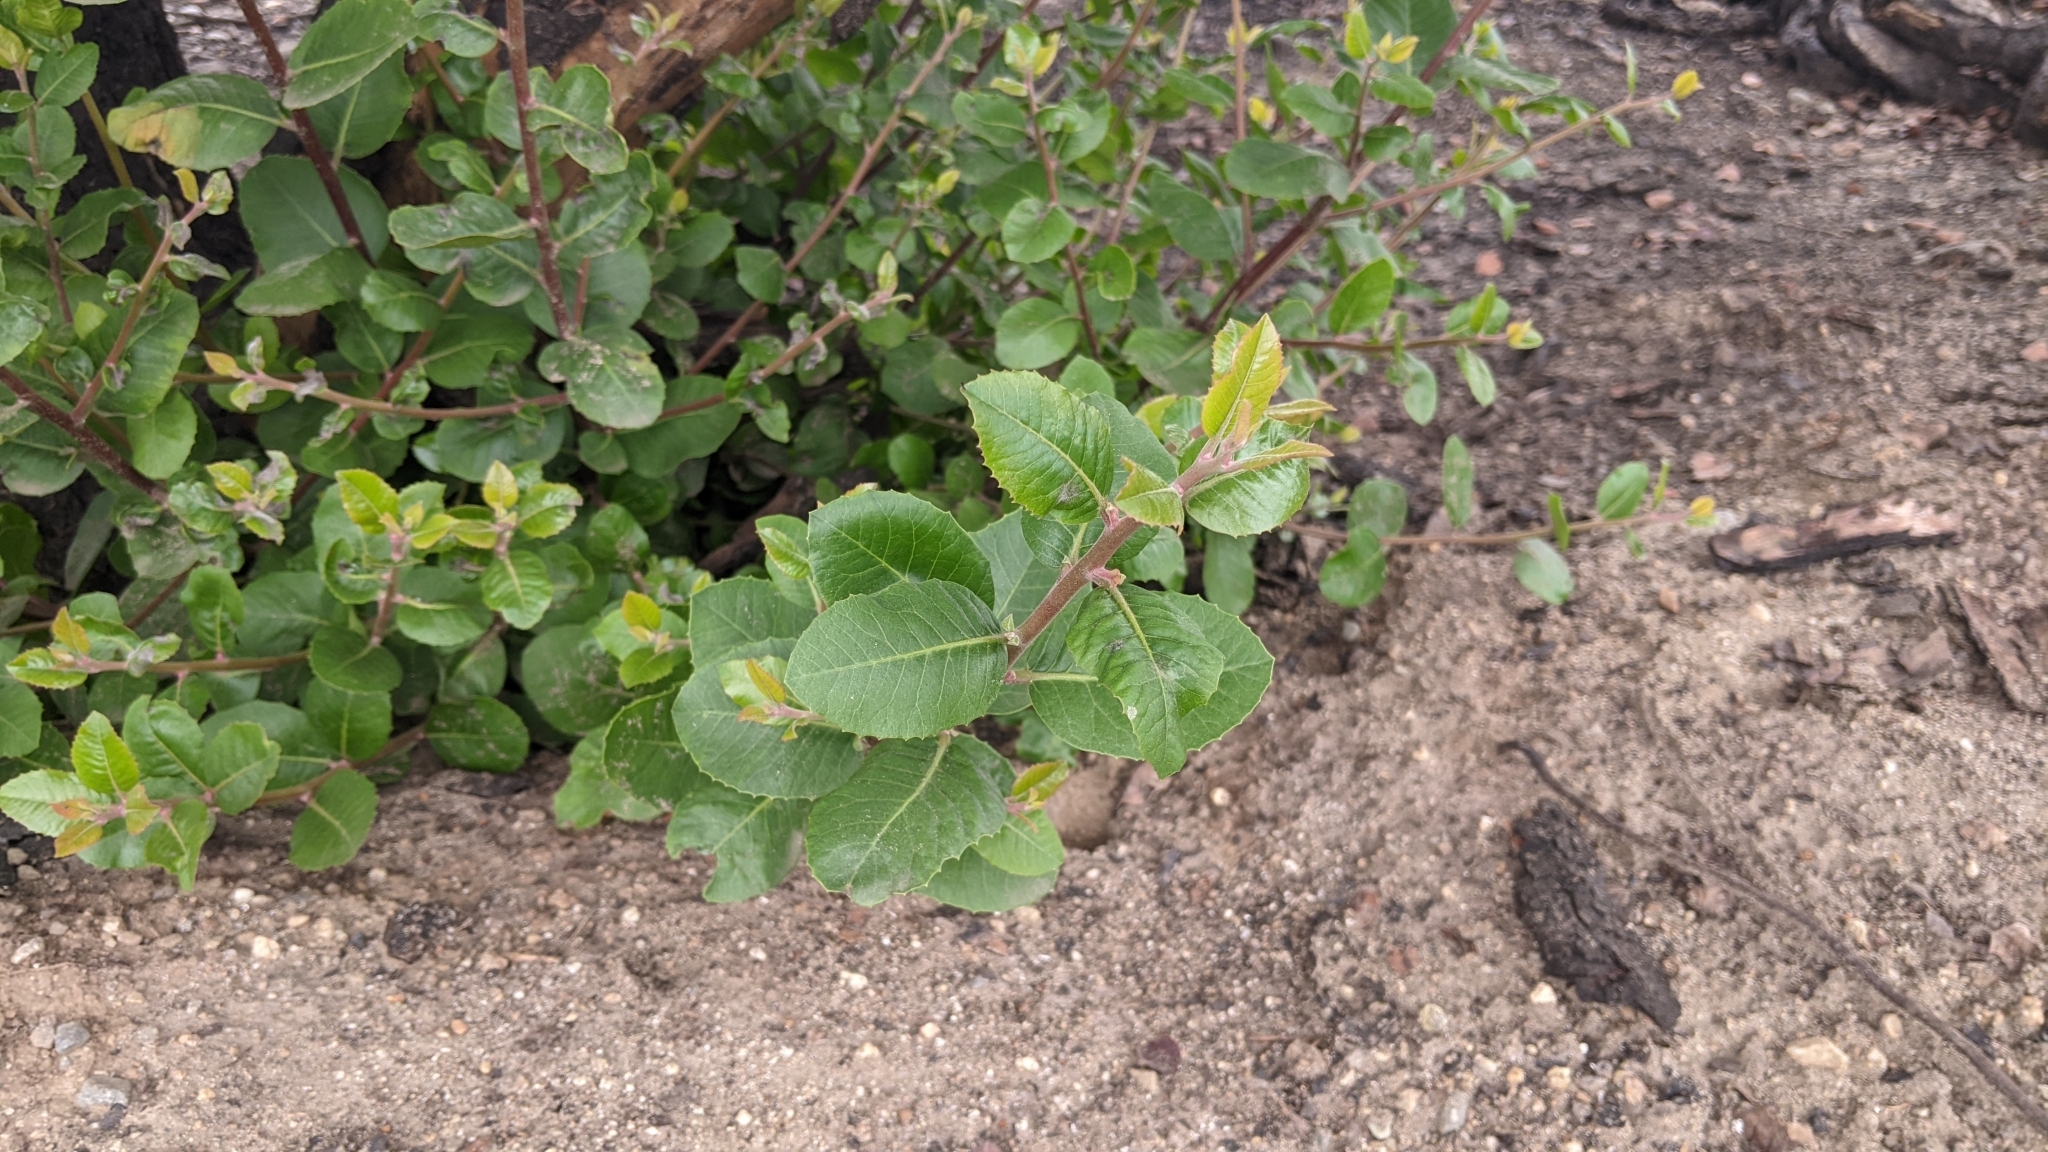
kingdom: Plantae
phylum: Tracheophyta
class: Magnoliopsida
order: Sapindales
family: Anacardiaceae
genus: Rhus
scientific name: Rhus integrifolia
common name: Lemonade sumac
